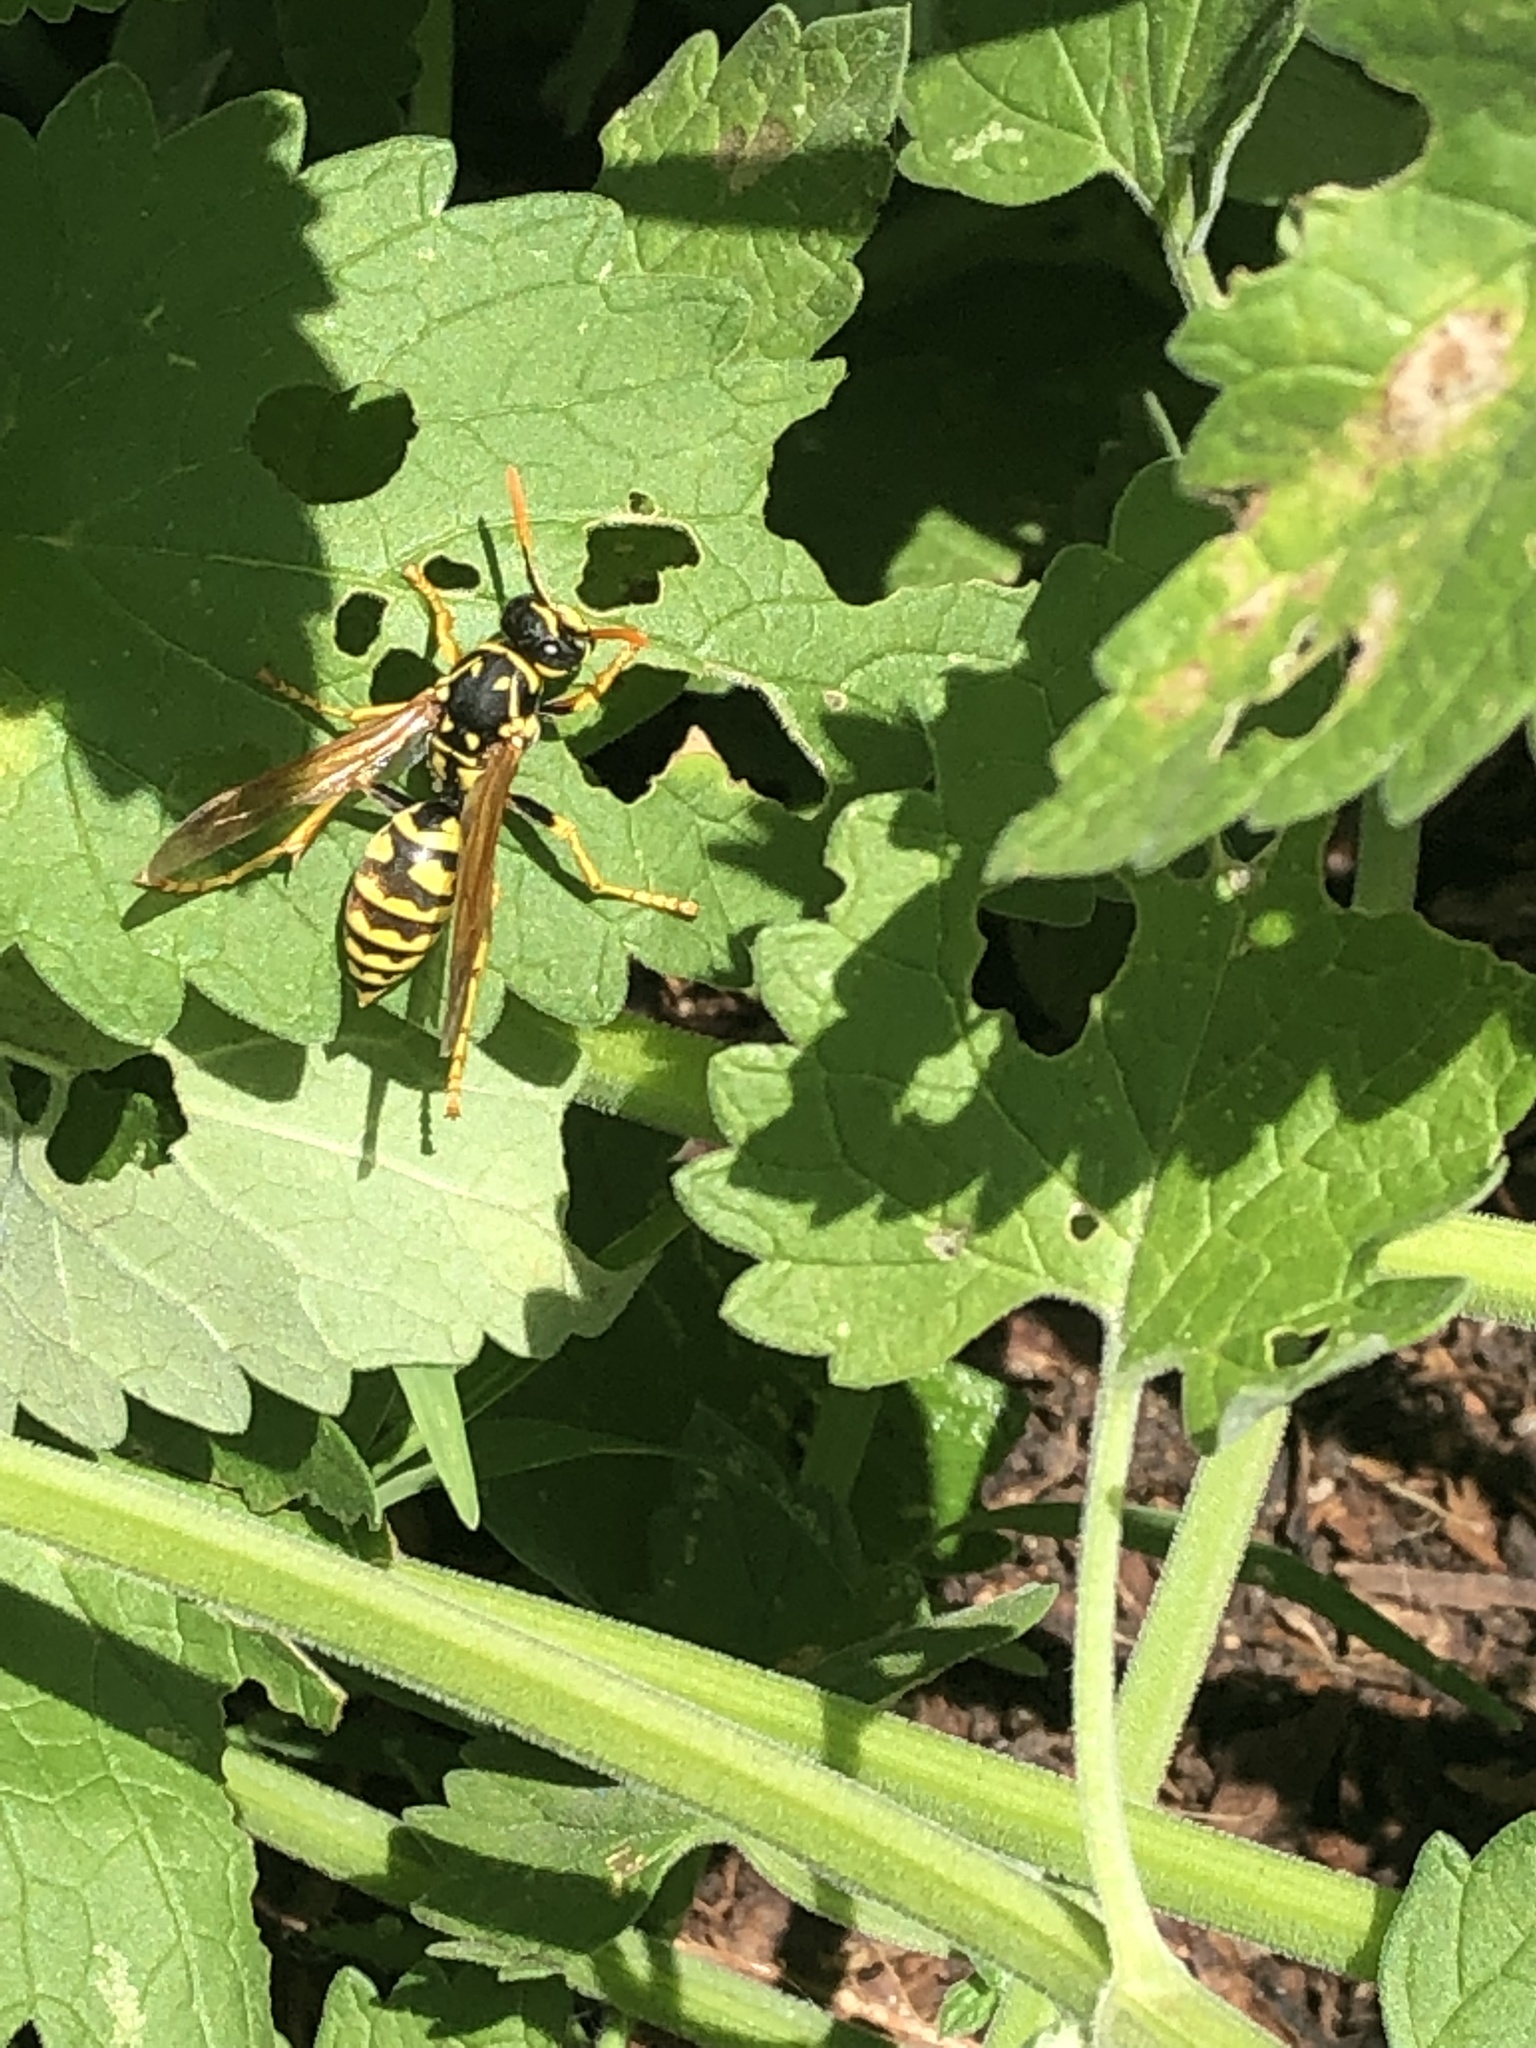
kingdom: Animalia
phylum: Arthropoda
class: Insecta
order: Hymenoptera
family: Eumenidae
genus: Polistes
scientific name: Polistes dominula
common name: Paper wasp
